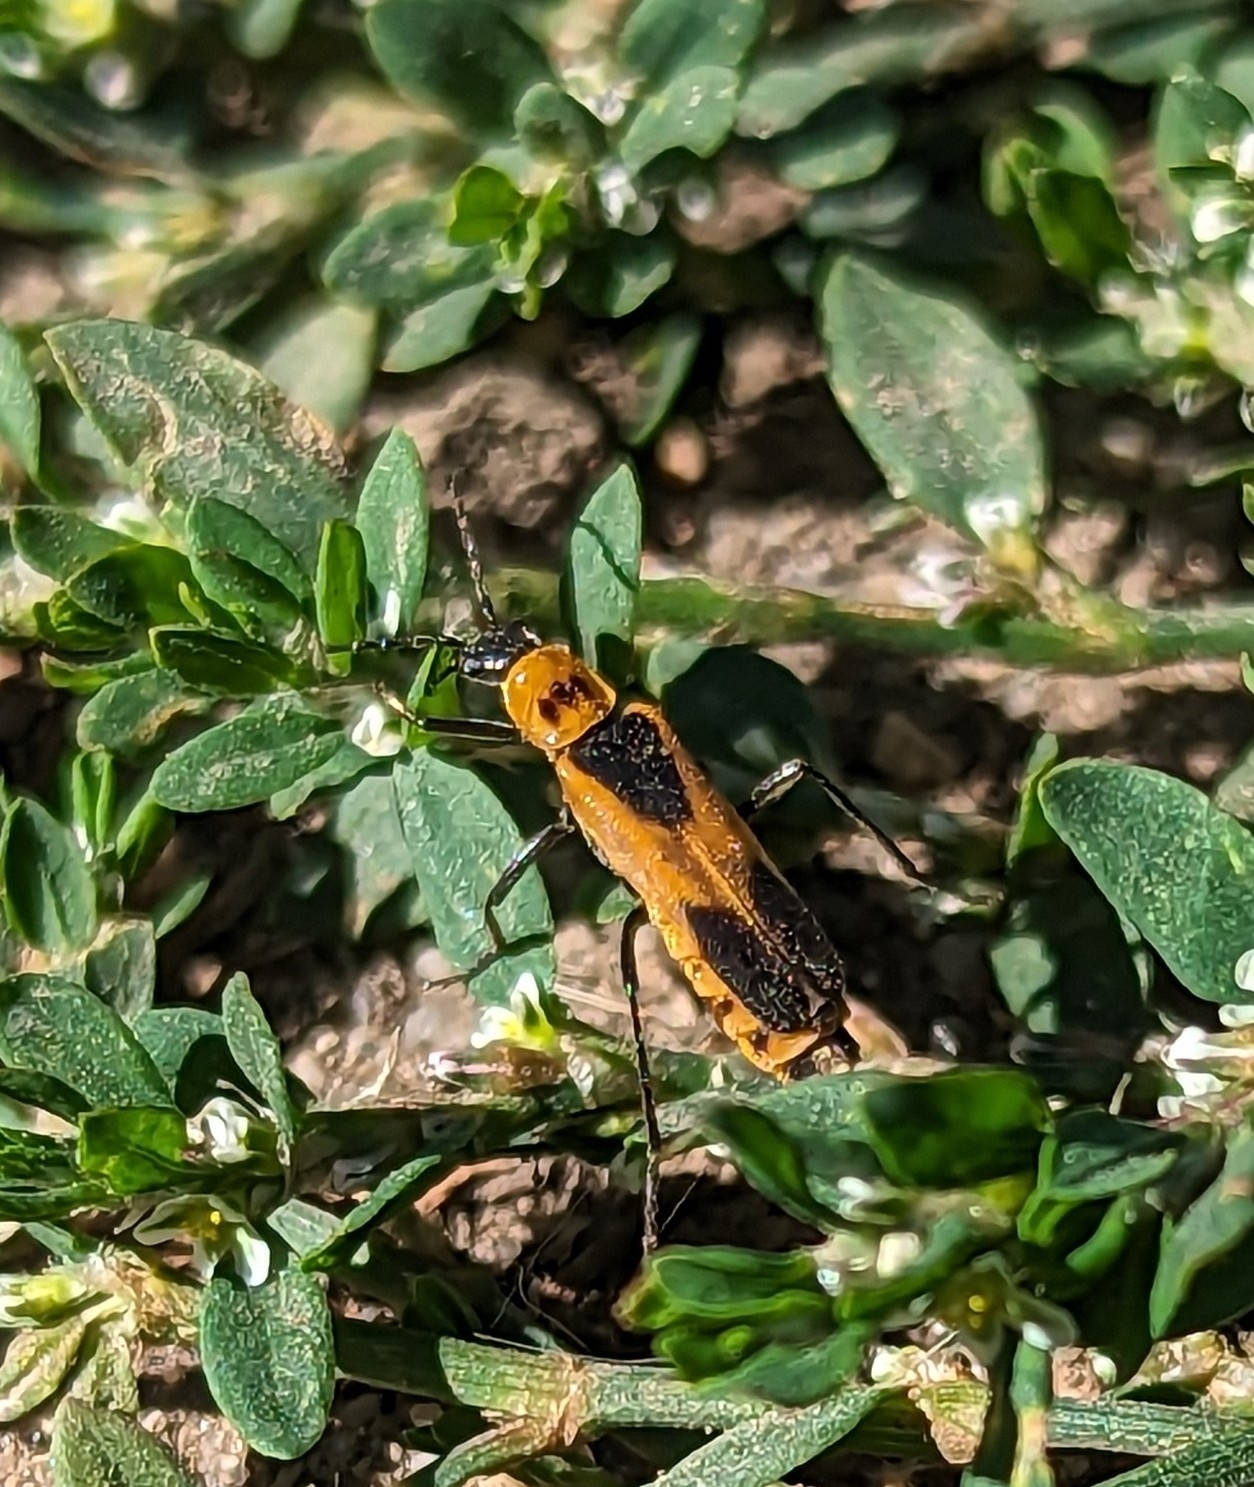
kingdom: Animalia
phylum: Arthropoda
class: Insecta
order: Coleoptera
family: Cantharidae
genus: Chauliognathus
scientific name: Chauliognathus basalis
